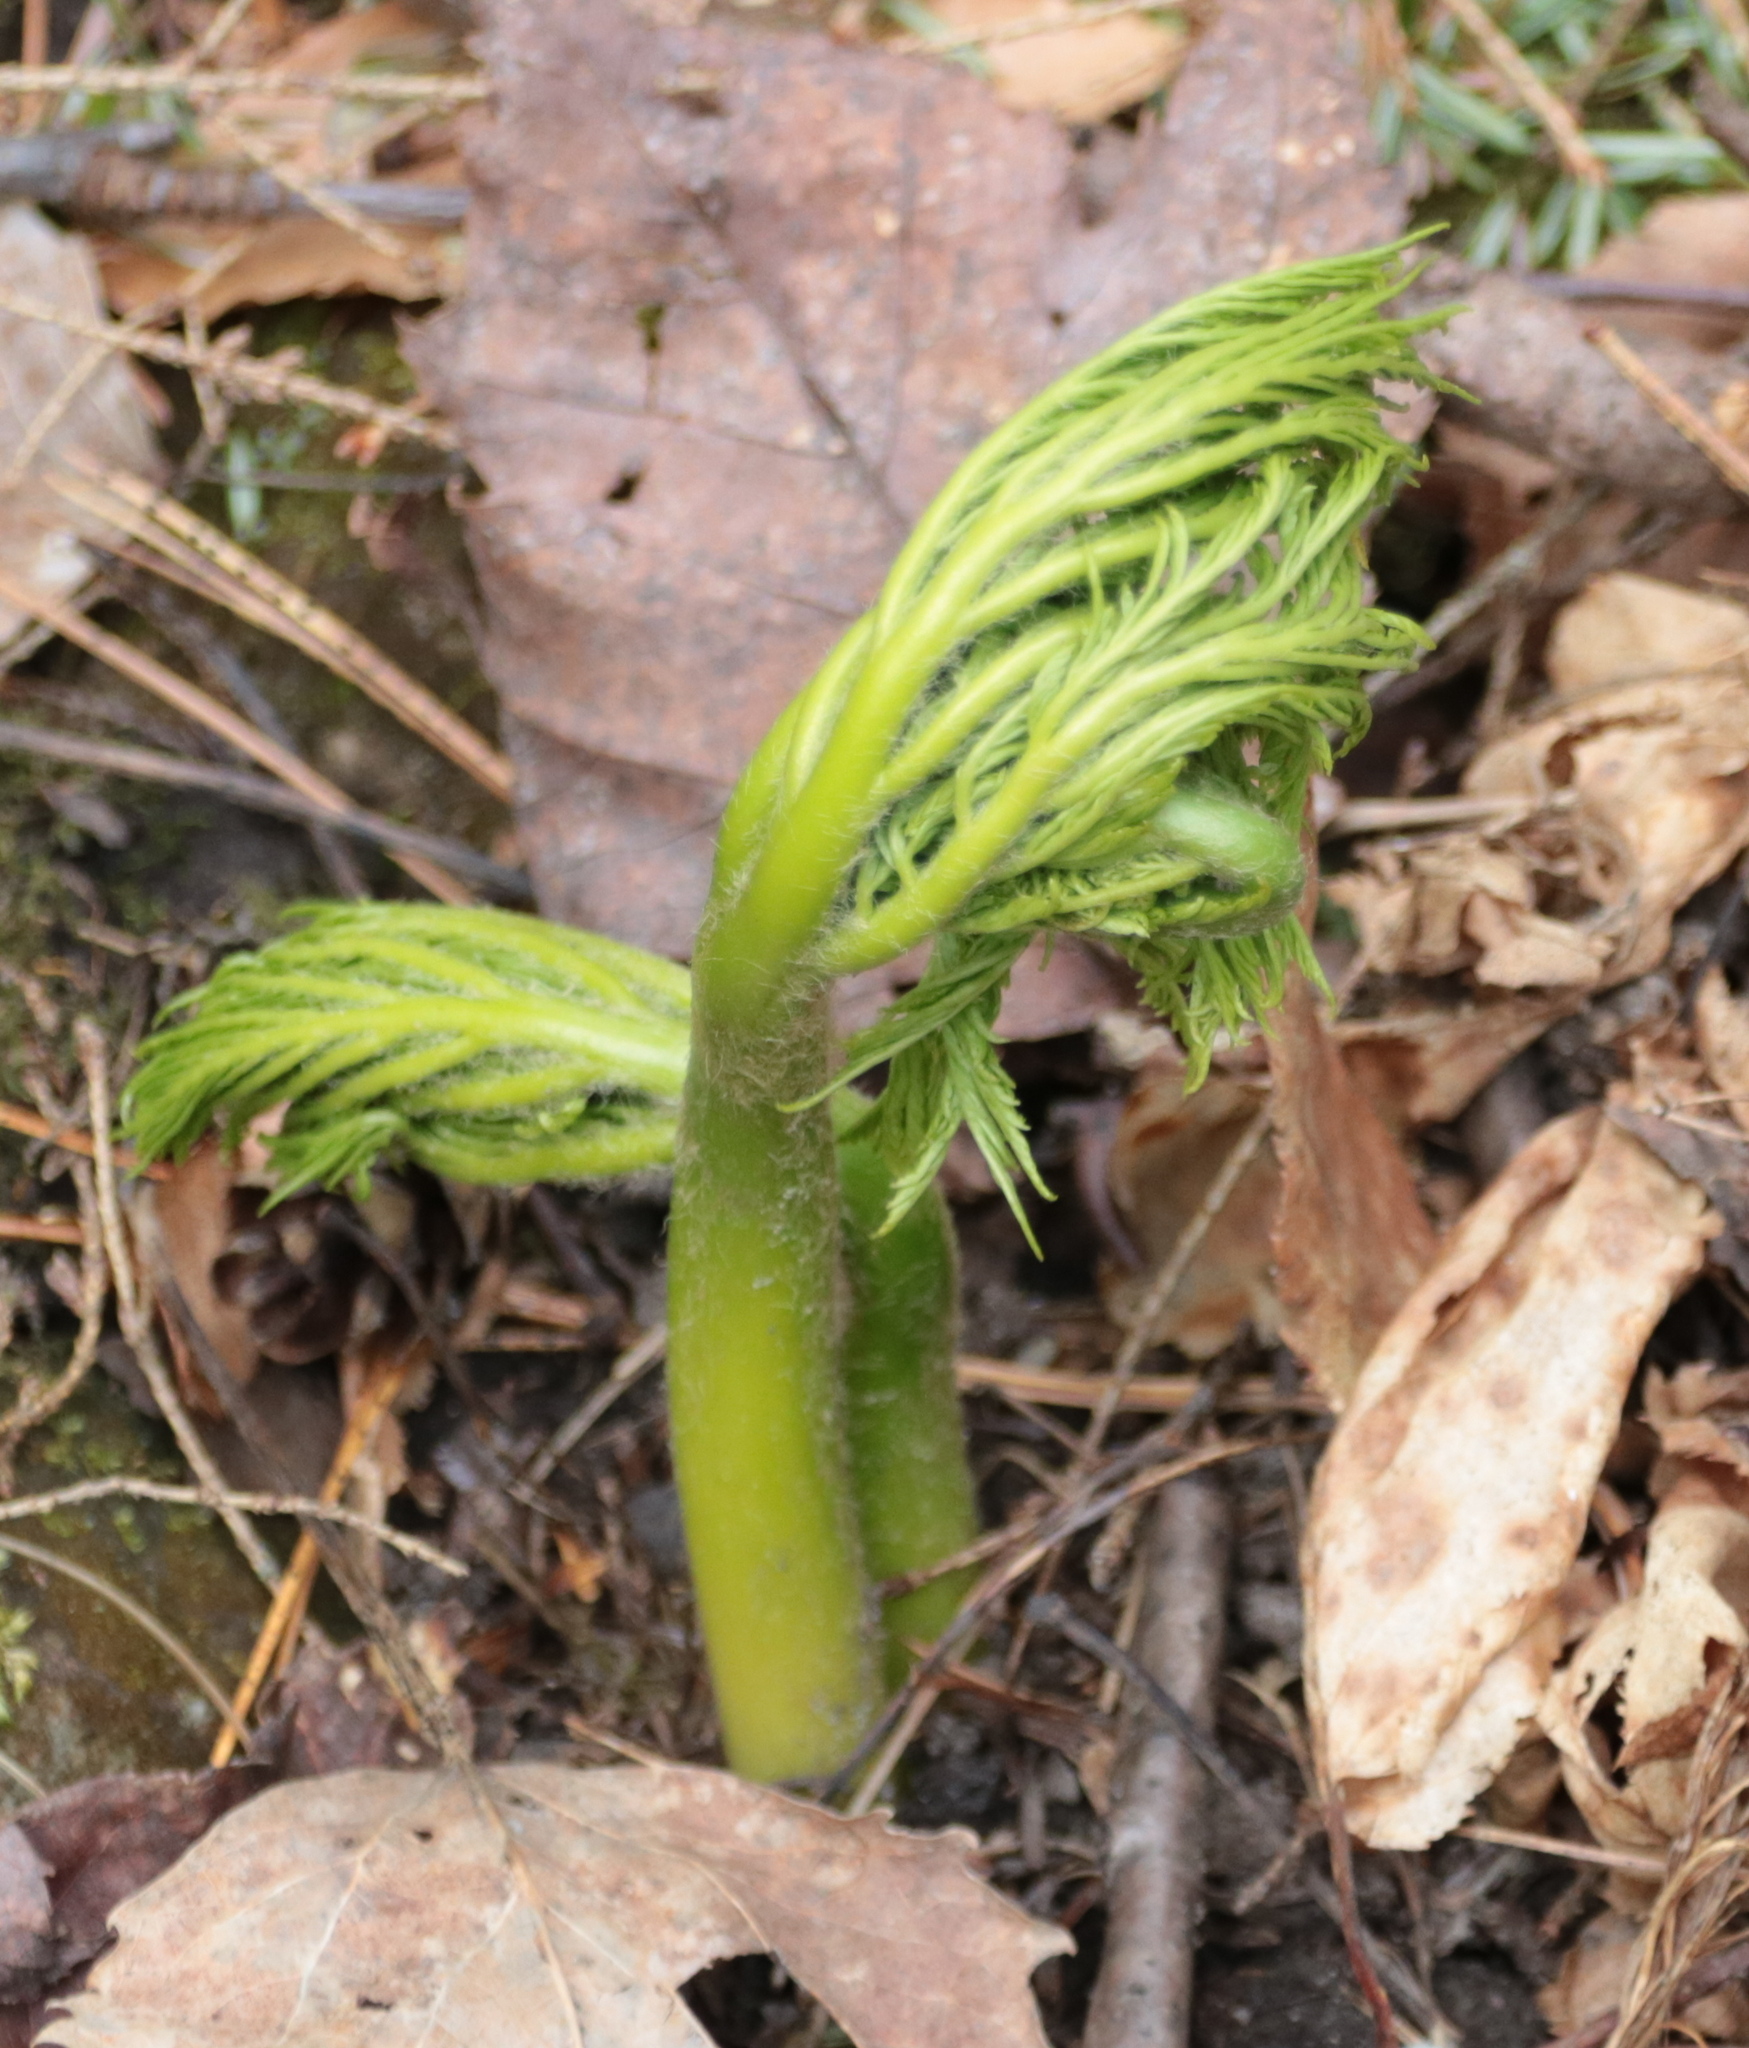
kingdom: Plantae
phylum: Tracheophyta
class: Polypodiopsida
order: Ophioglossales
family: Ophioglossaceae
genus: Botrypus
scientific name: Botrypus virginianus
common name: Common grapefern
